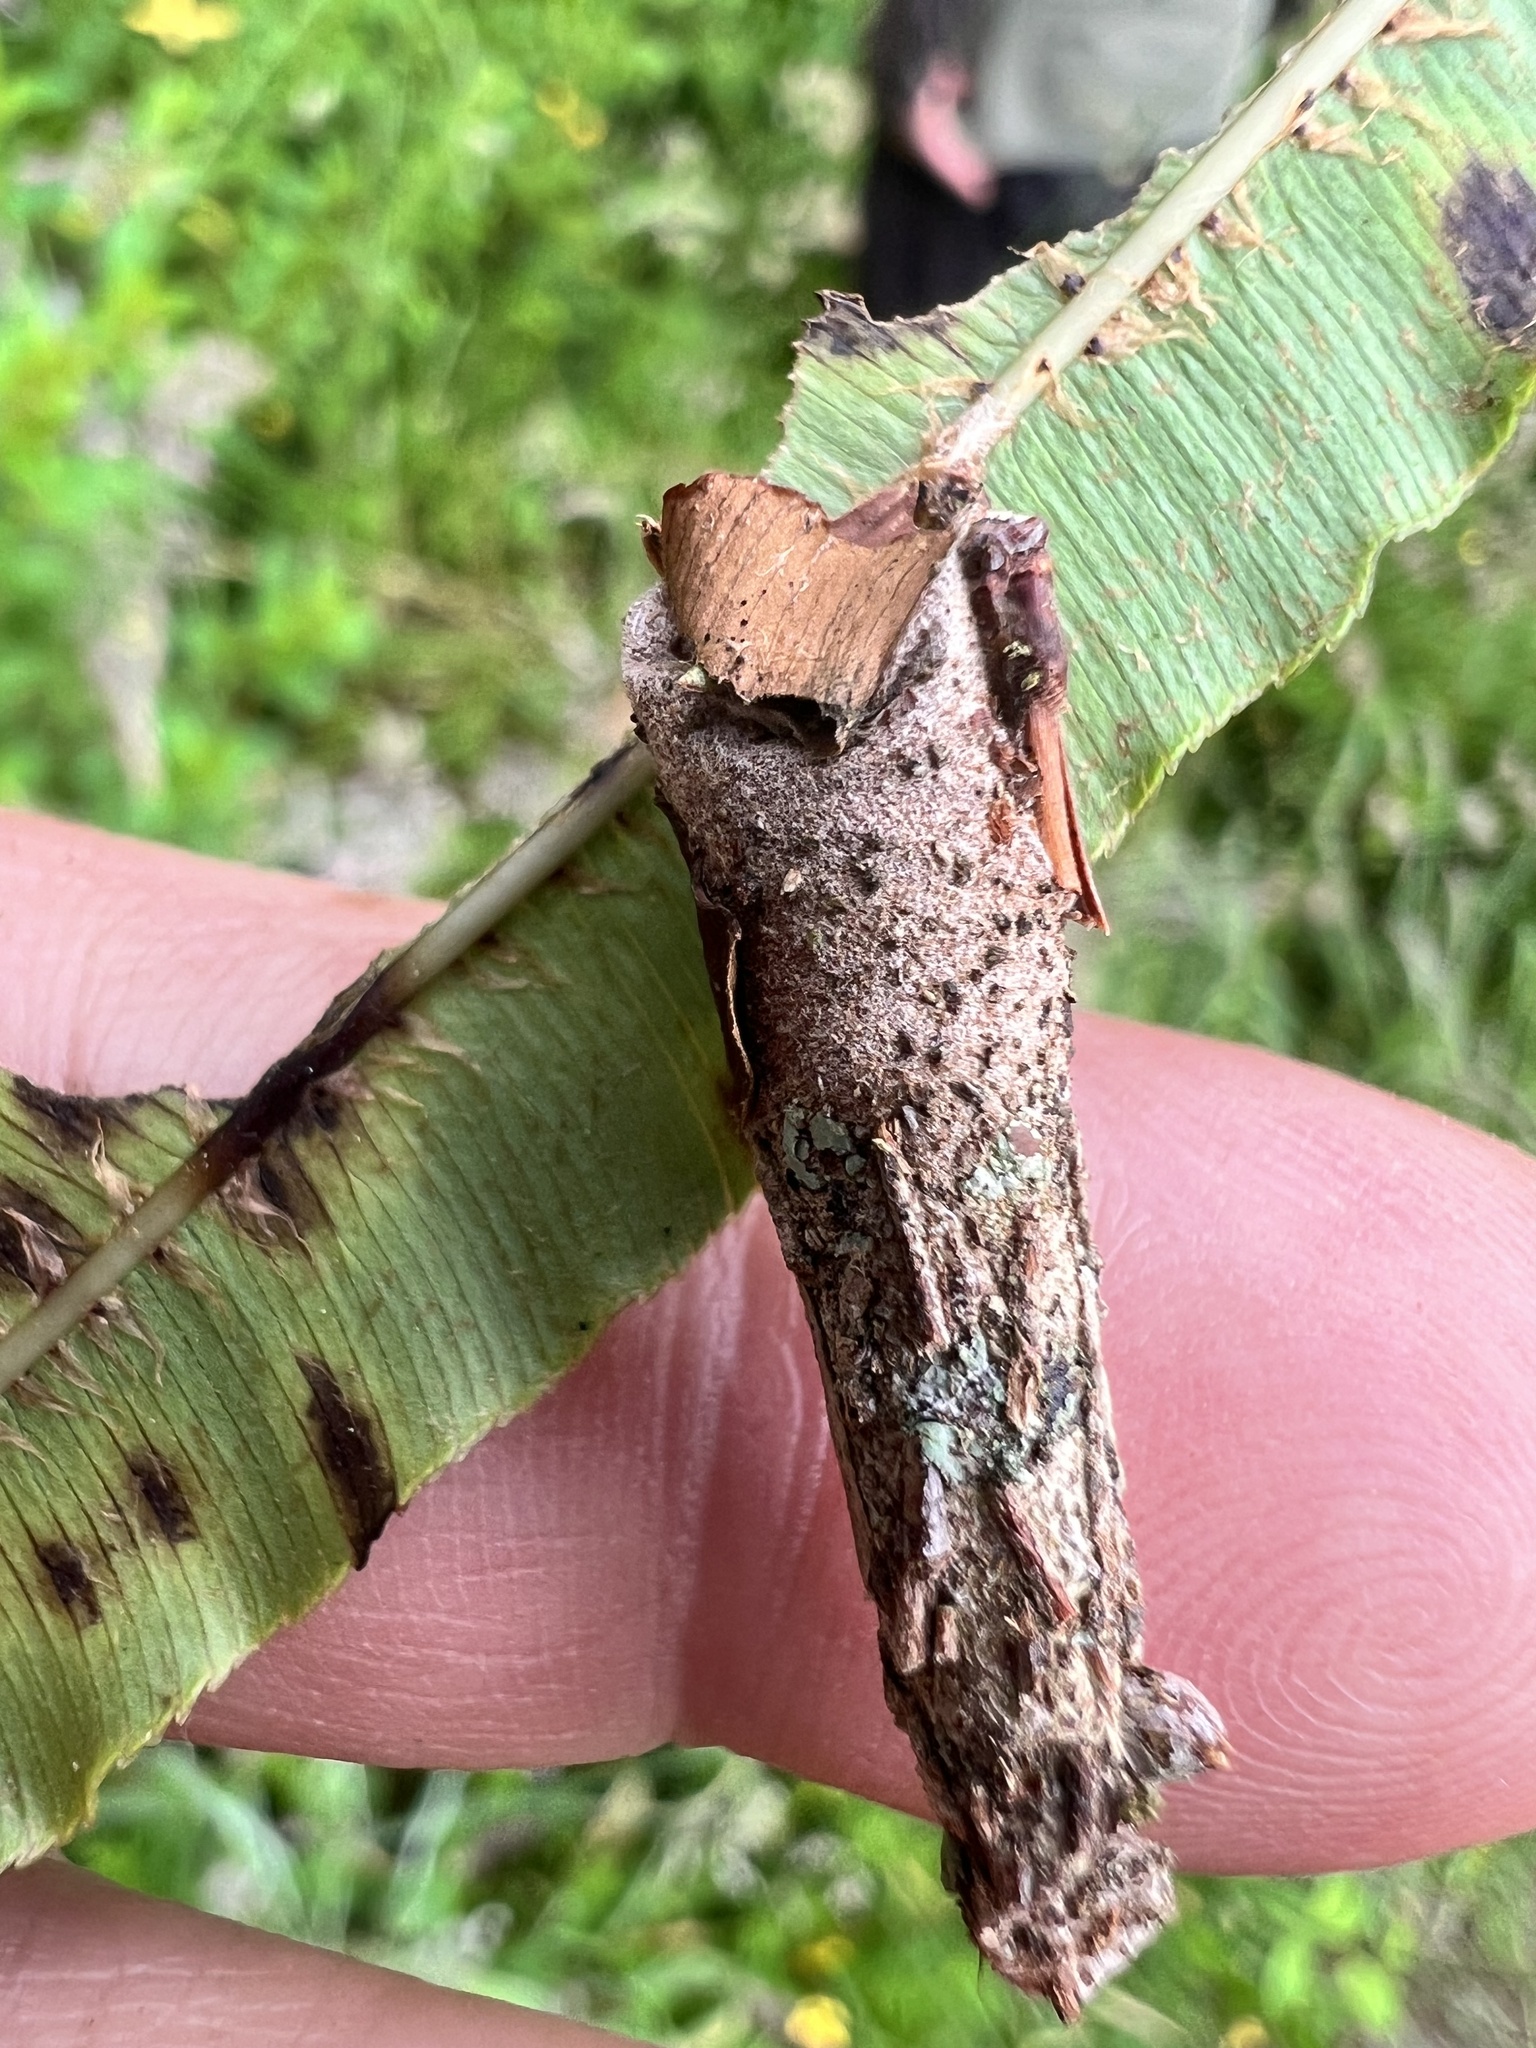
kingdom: Animalia
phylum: Arthropoda
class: Insecta
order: Lepidoptera
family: Psychidae
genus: Liothula
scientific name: Liothula omnivora
